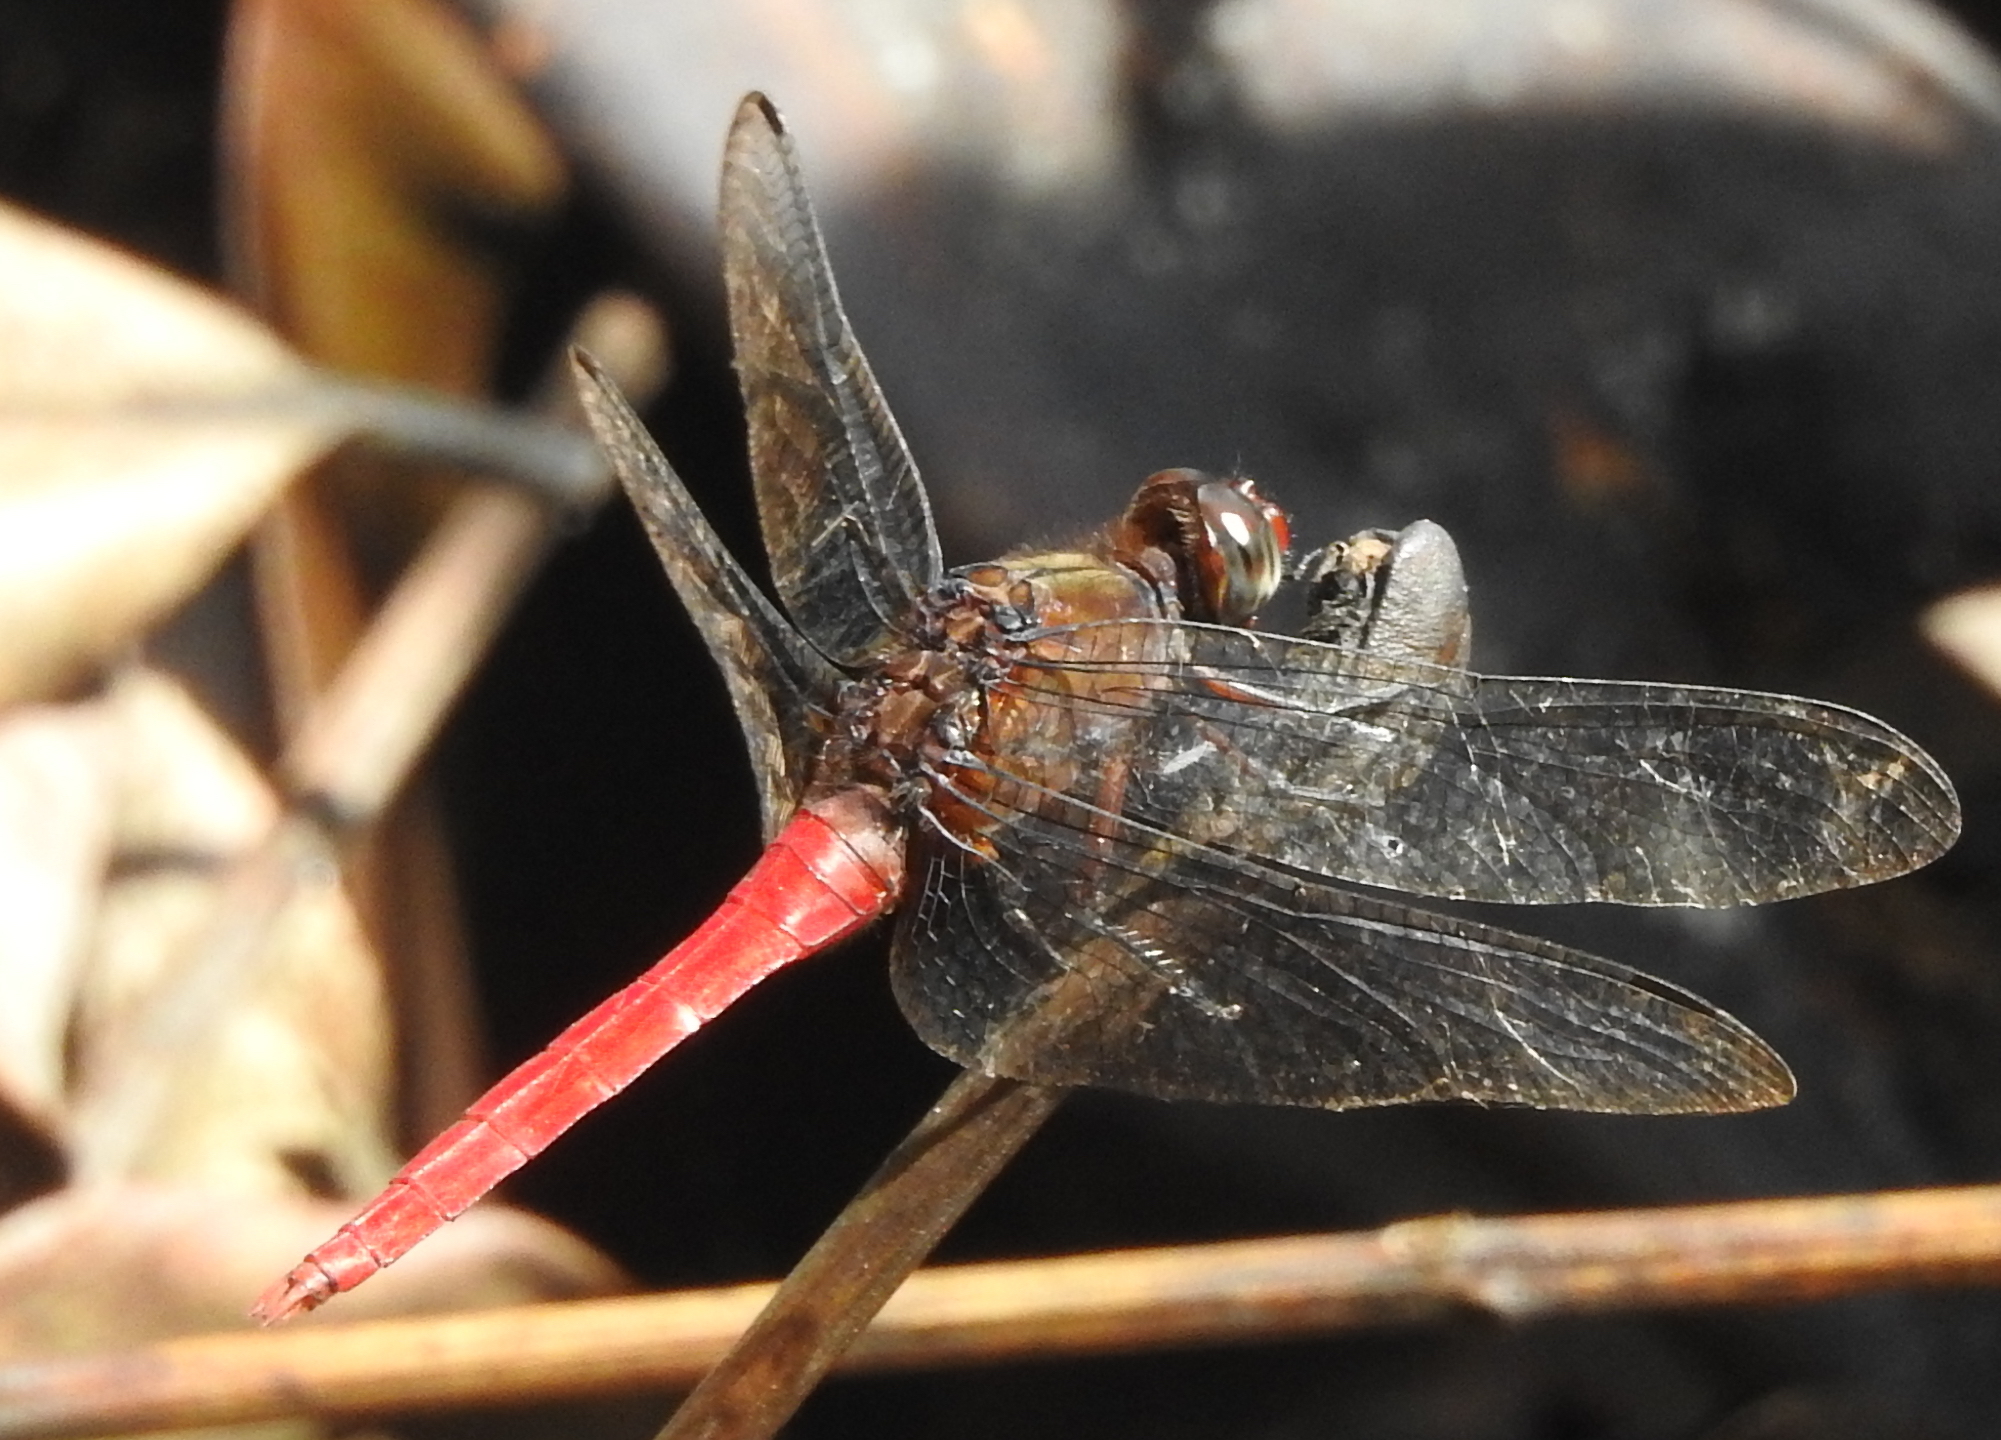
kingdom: Animalia
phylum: Arthropoda
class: Insecta
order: Odonata
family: Libellulidae
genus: Orthetrum
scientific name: Orthetrum chrysis
